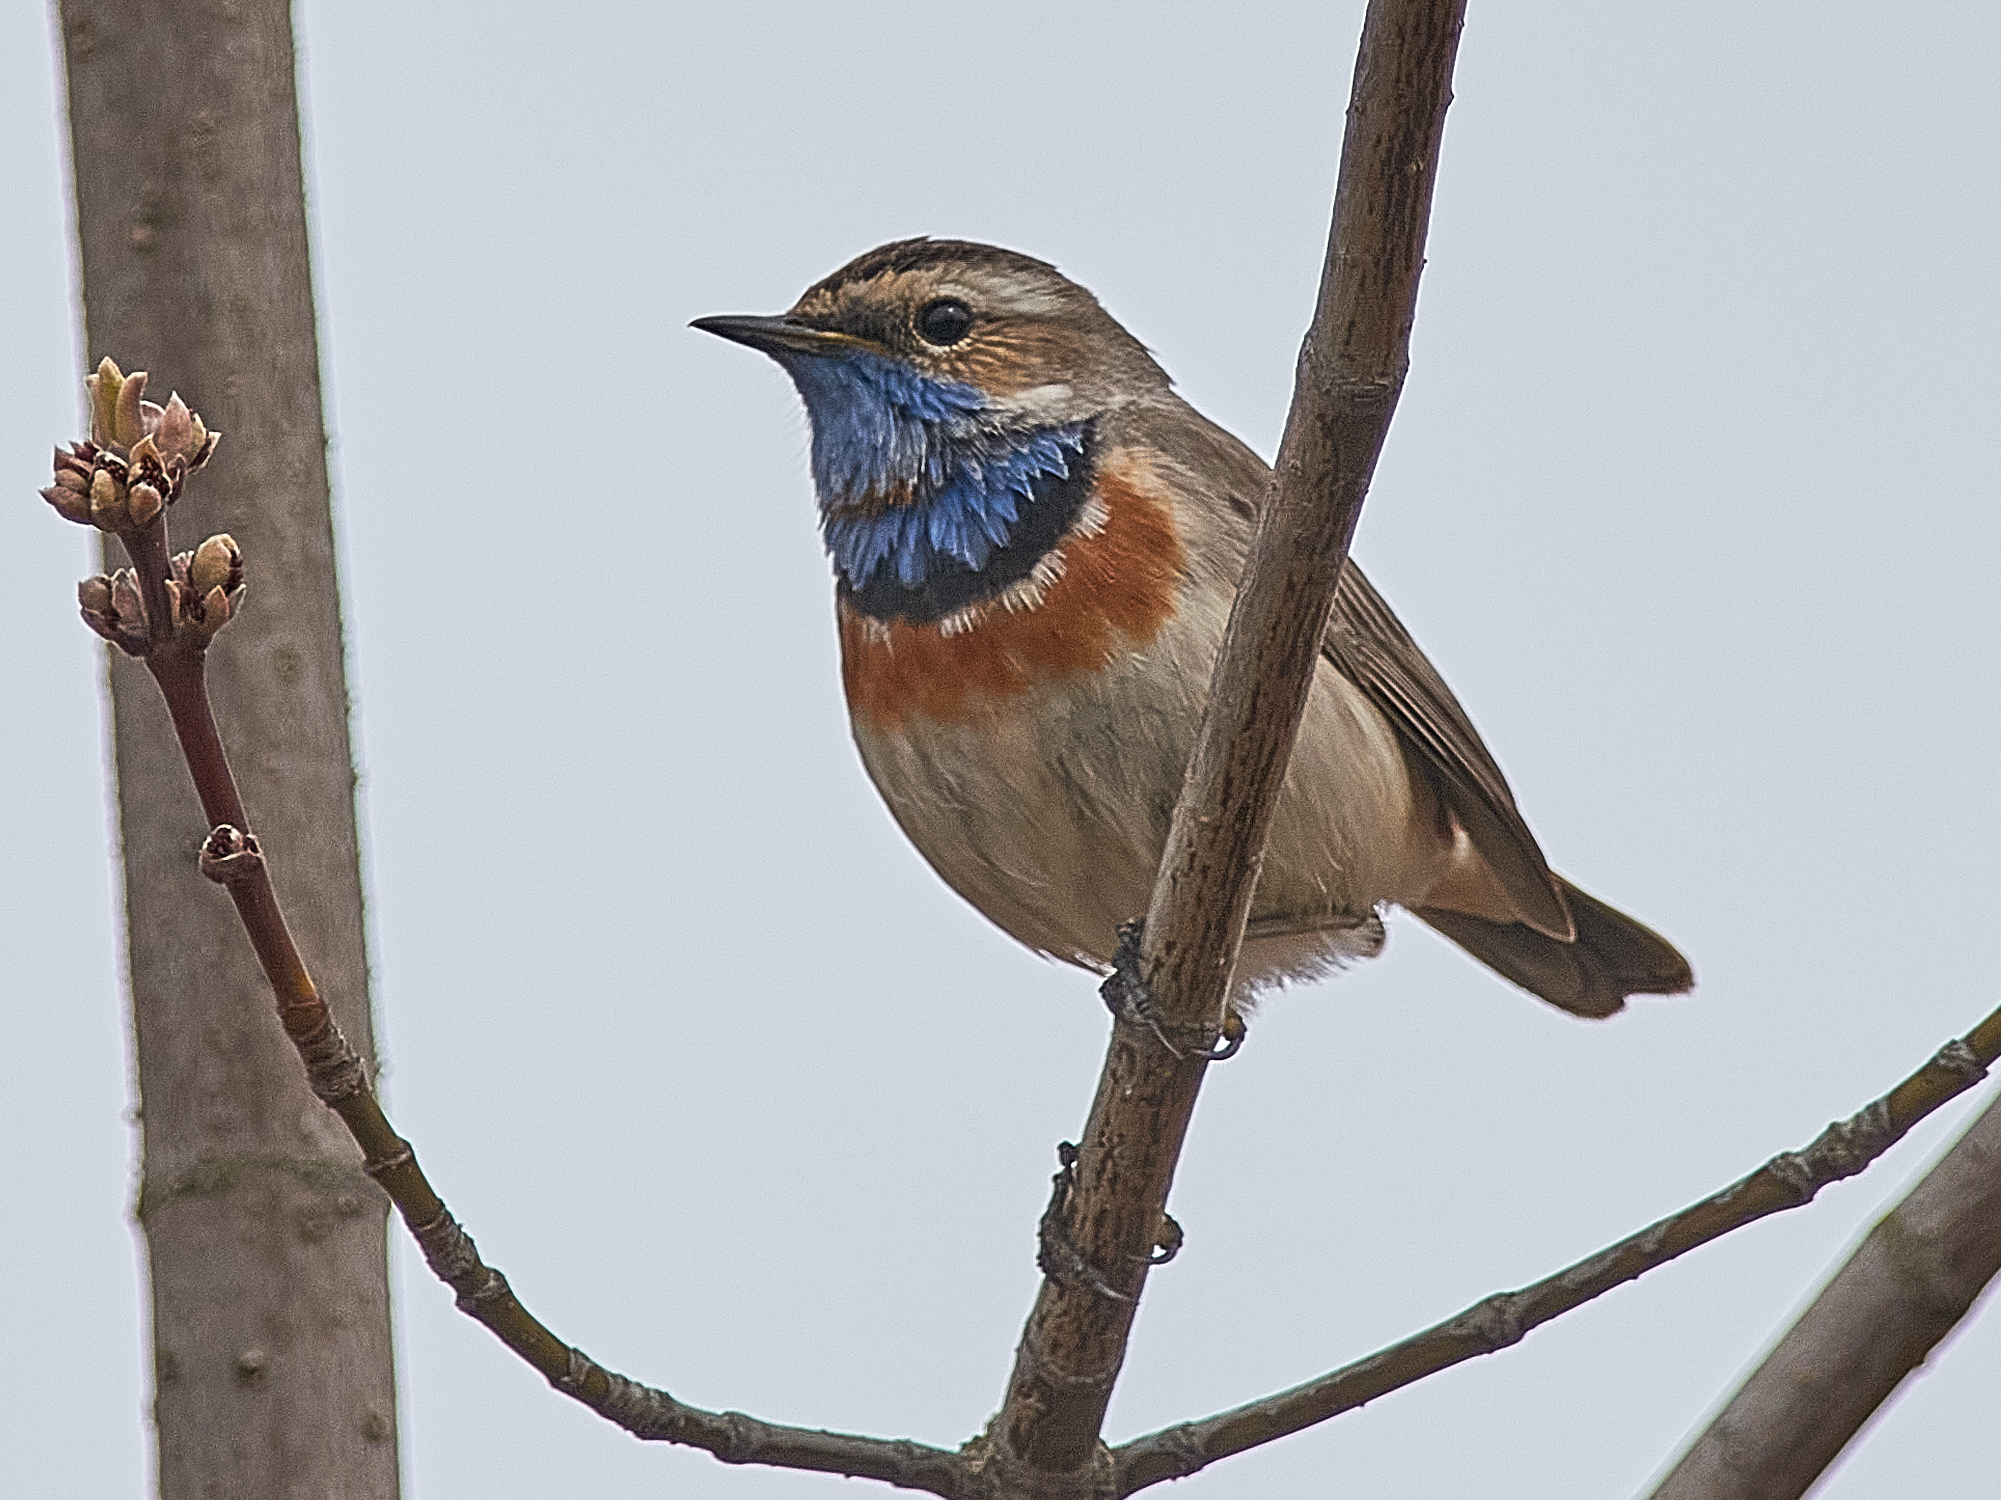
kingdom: Animalia
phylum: Chordata
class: Aves
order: Passeriformes
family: Muscicapidae
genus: Luscinia
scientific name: Luscinia svecica
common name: Bluethroat
